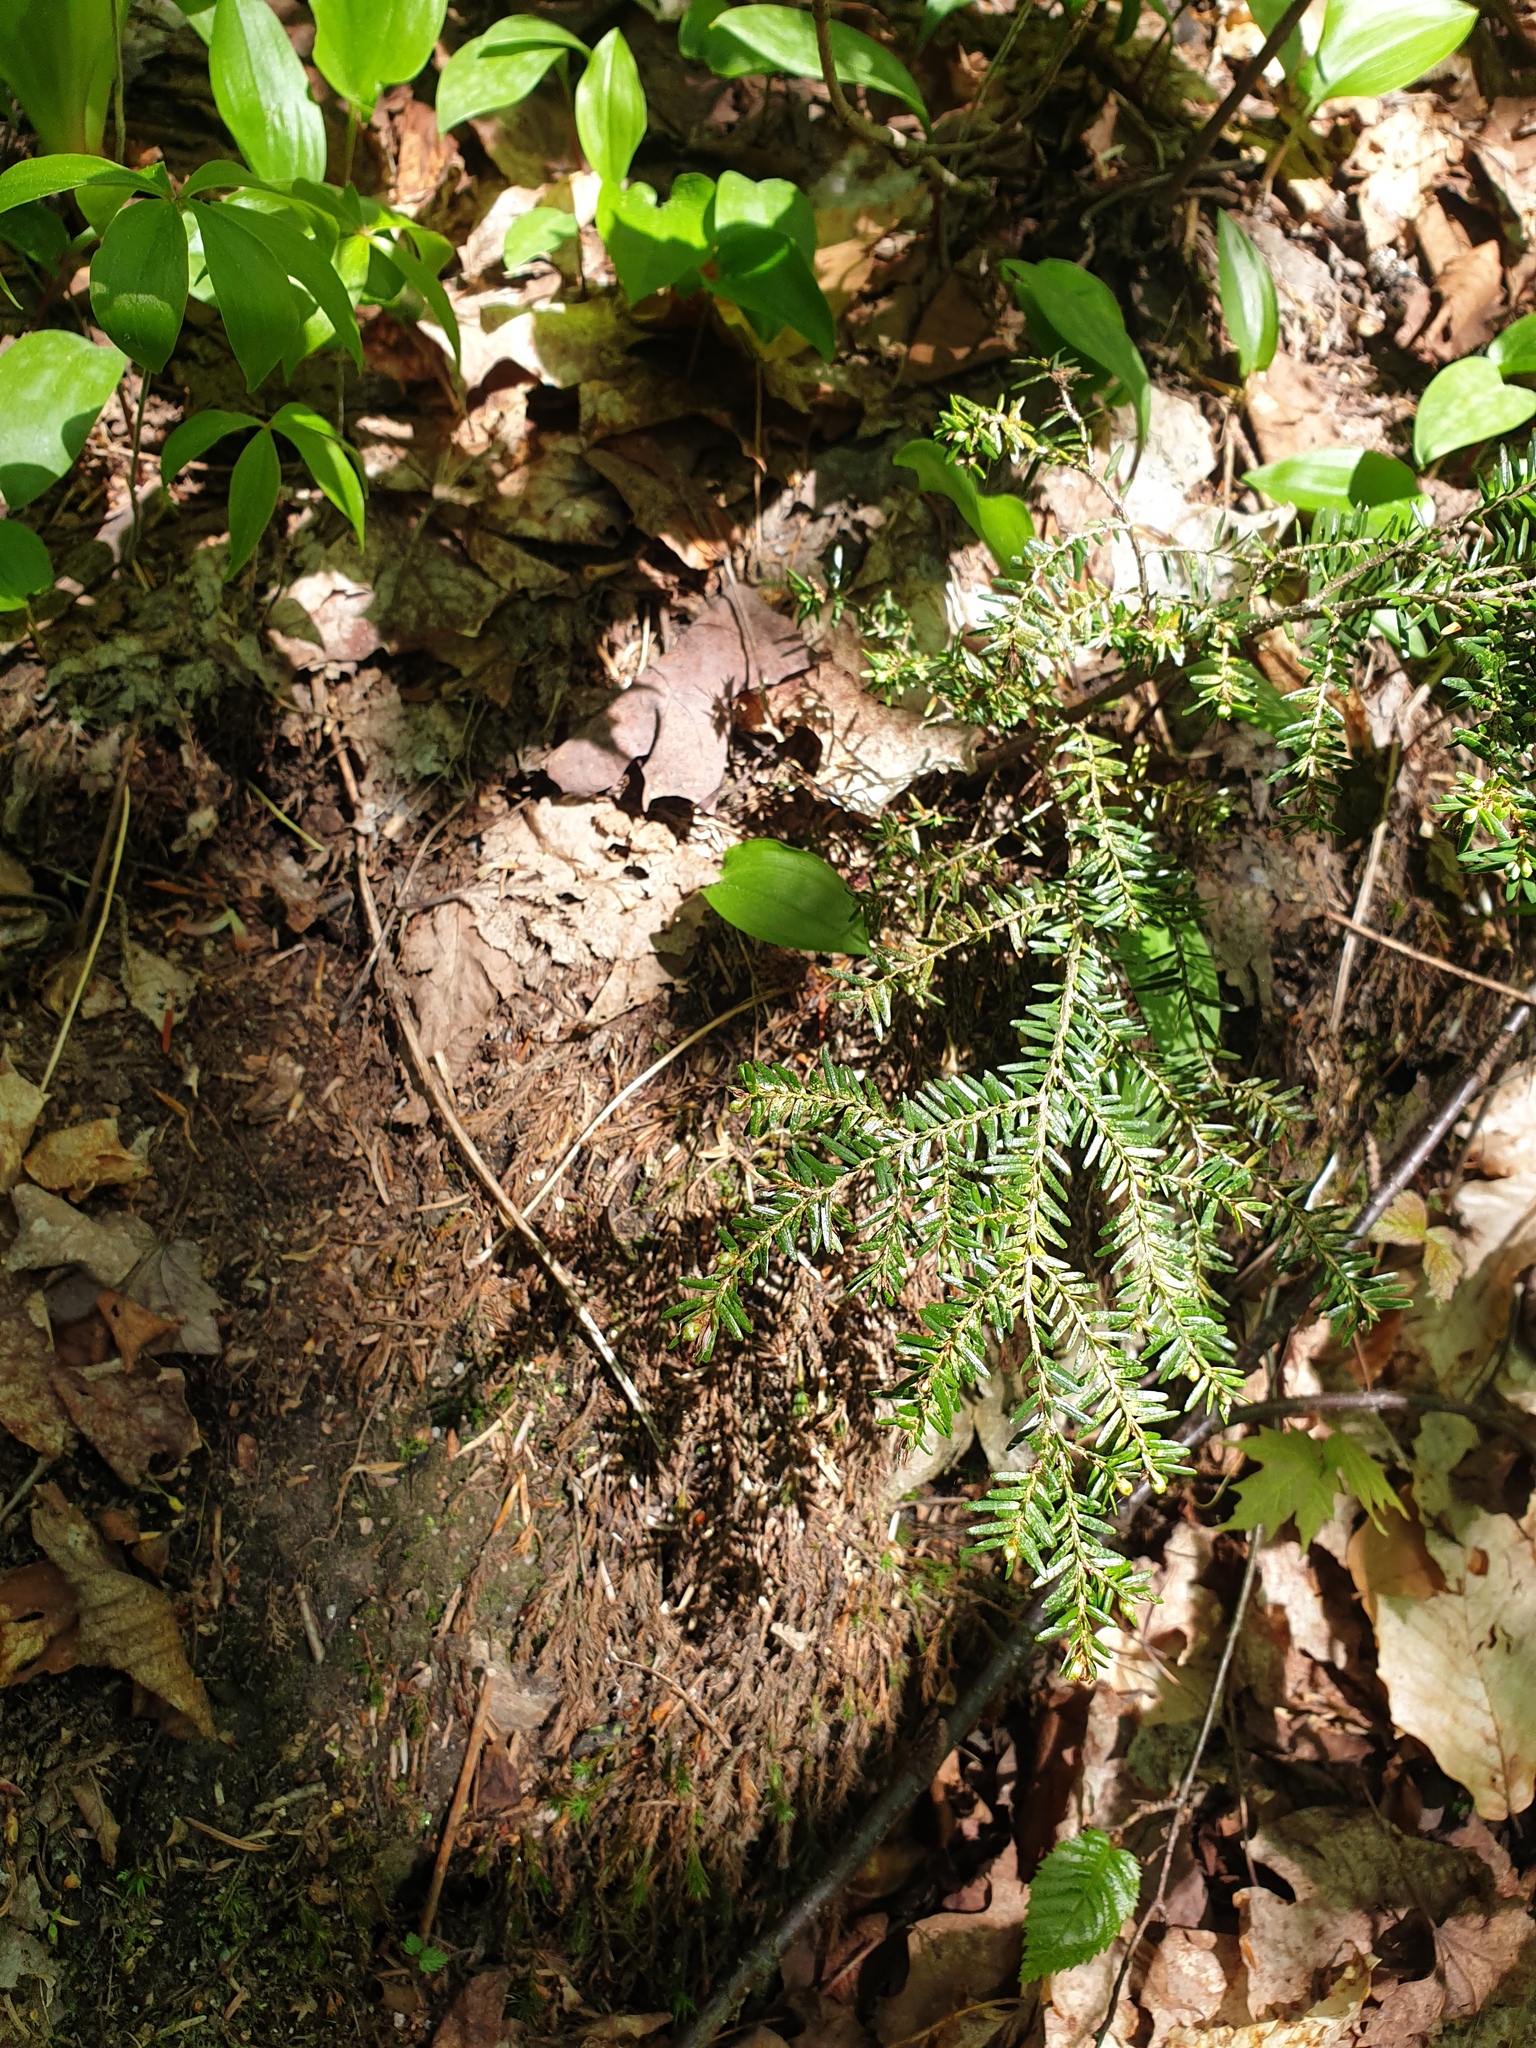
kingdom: Plantae
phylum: Tracheophyta
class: Pinopsida
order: Pinales
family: Pinaceae
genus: Tsuga
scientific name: Tsuga canadensis
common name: Eastern hemlock
